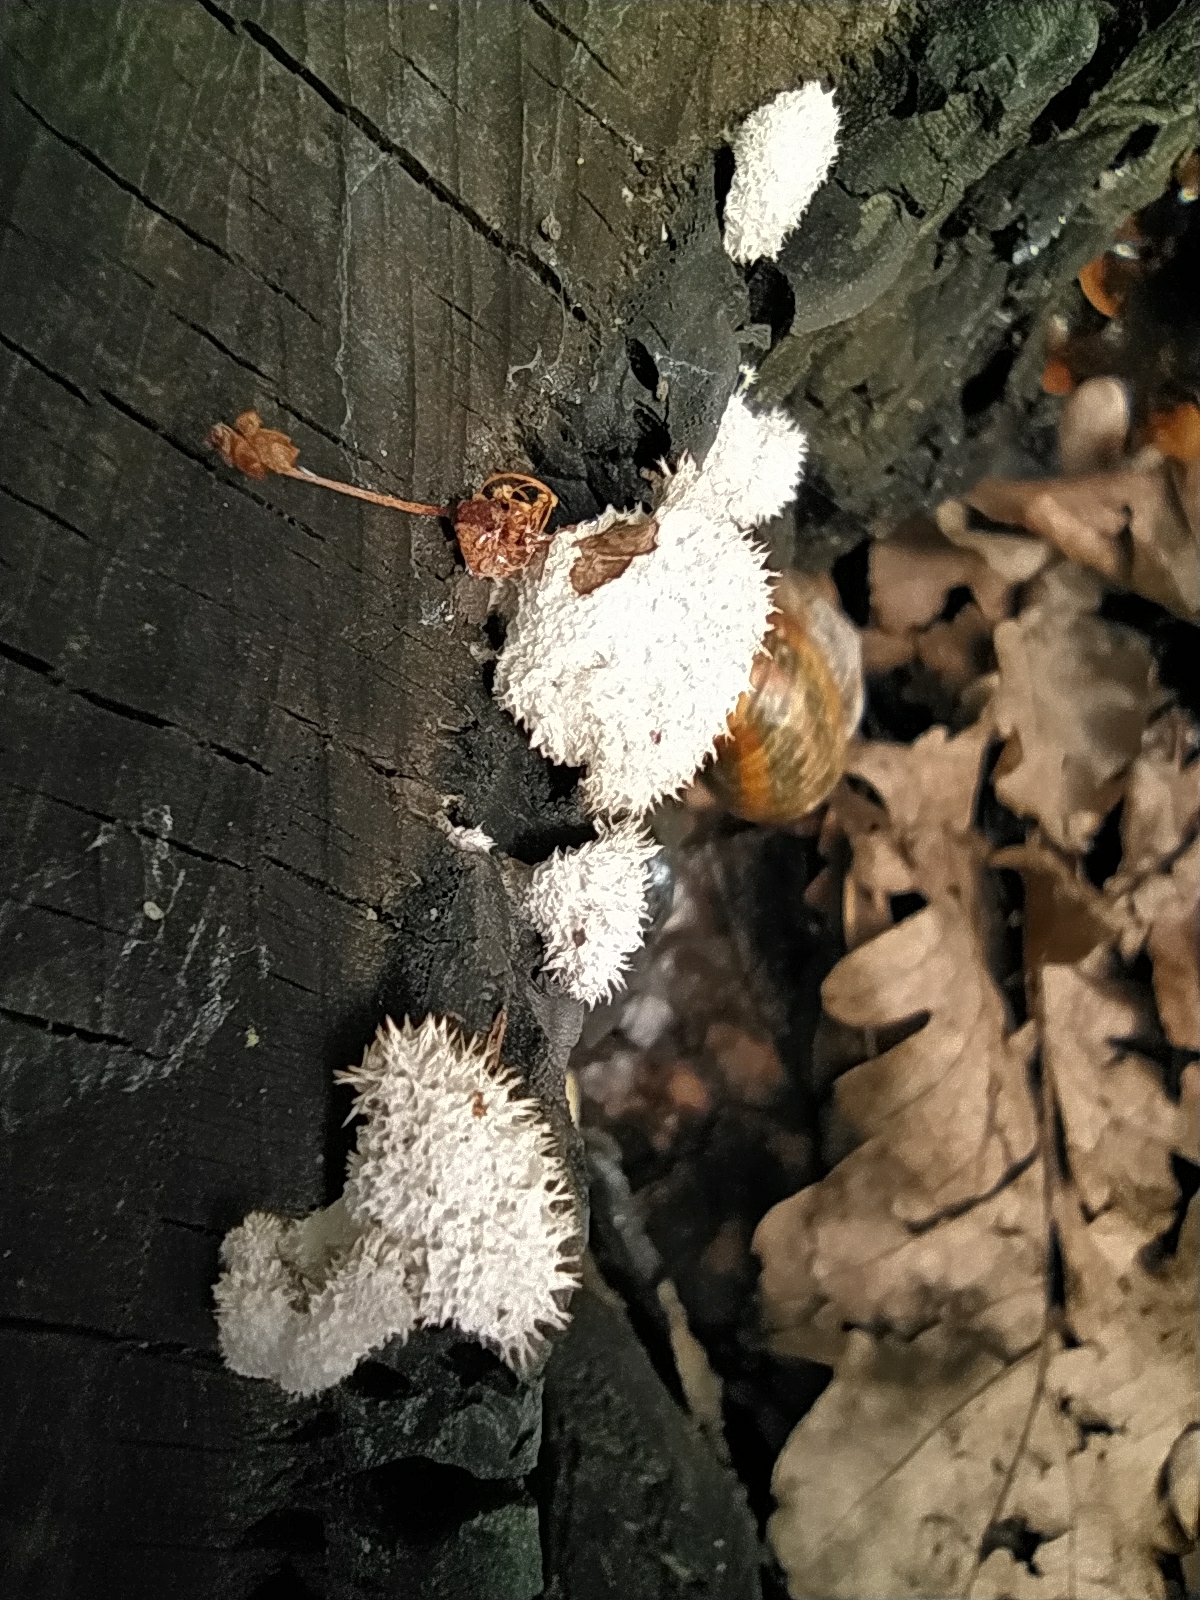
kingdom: Fungi
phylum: Basidiomycota
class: Agaricomycetes
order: Agaricales
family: Schizophyllaceae
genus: Schizophyllum
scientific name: Schizophyllum commune
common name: Common porecrust
